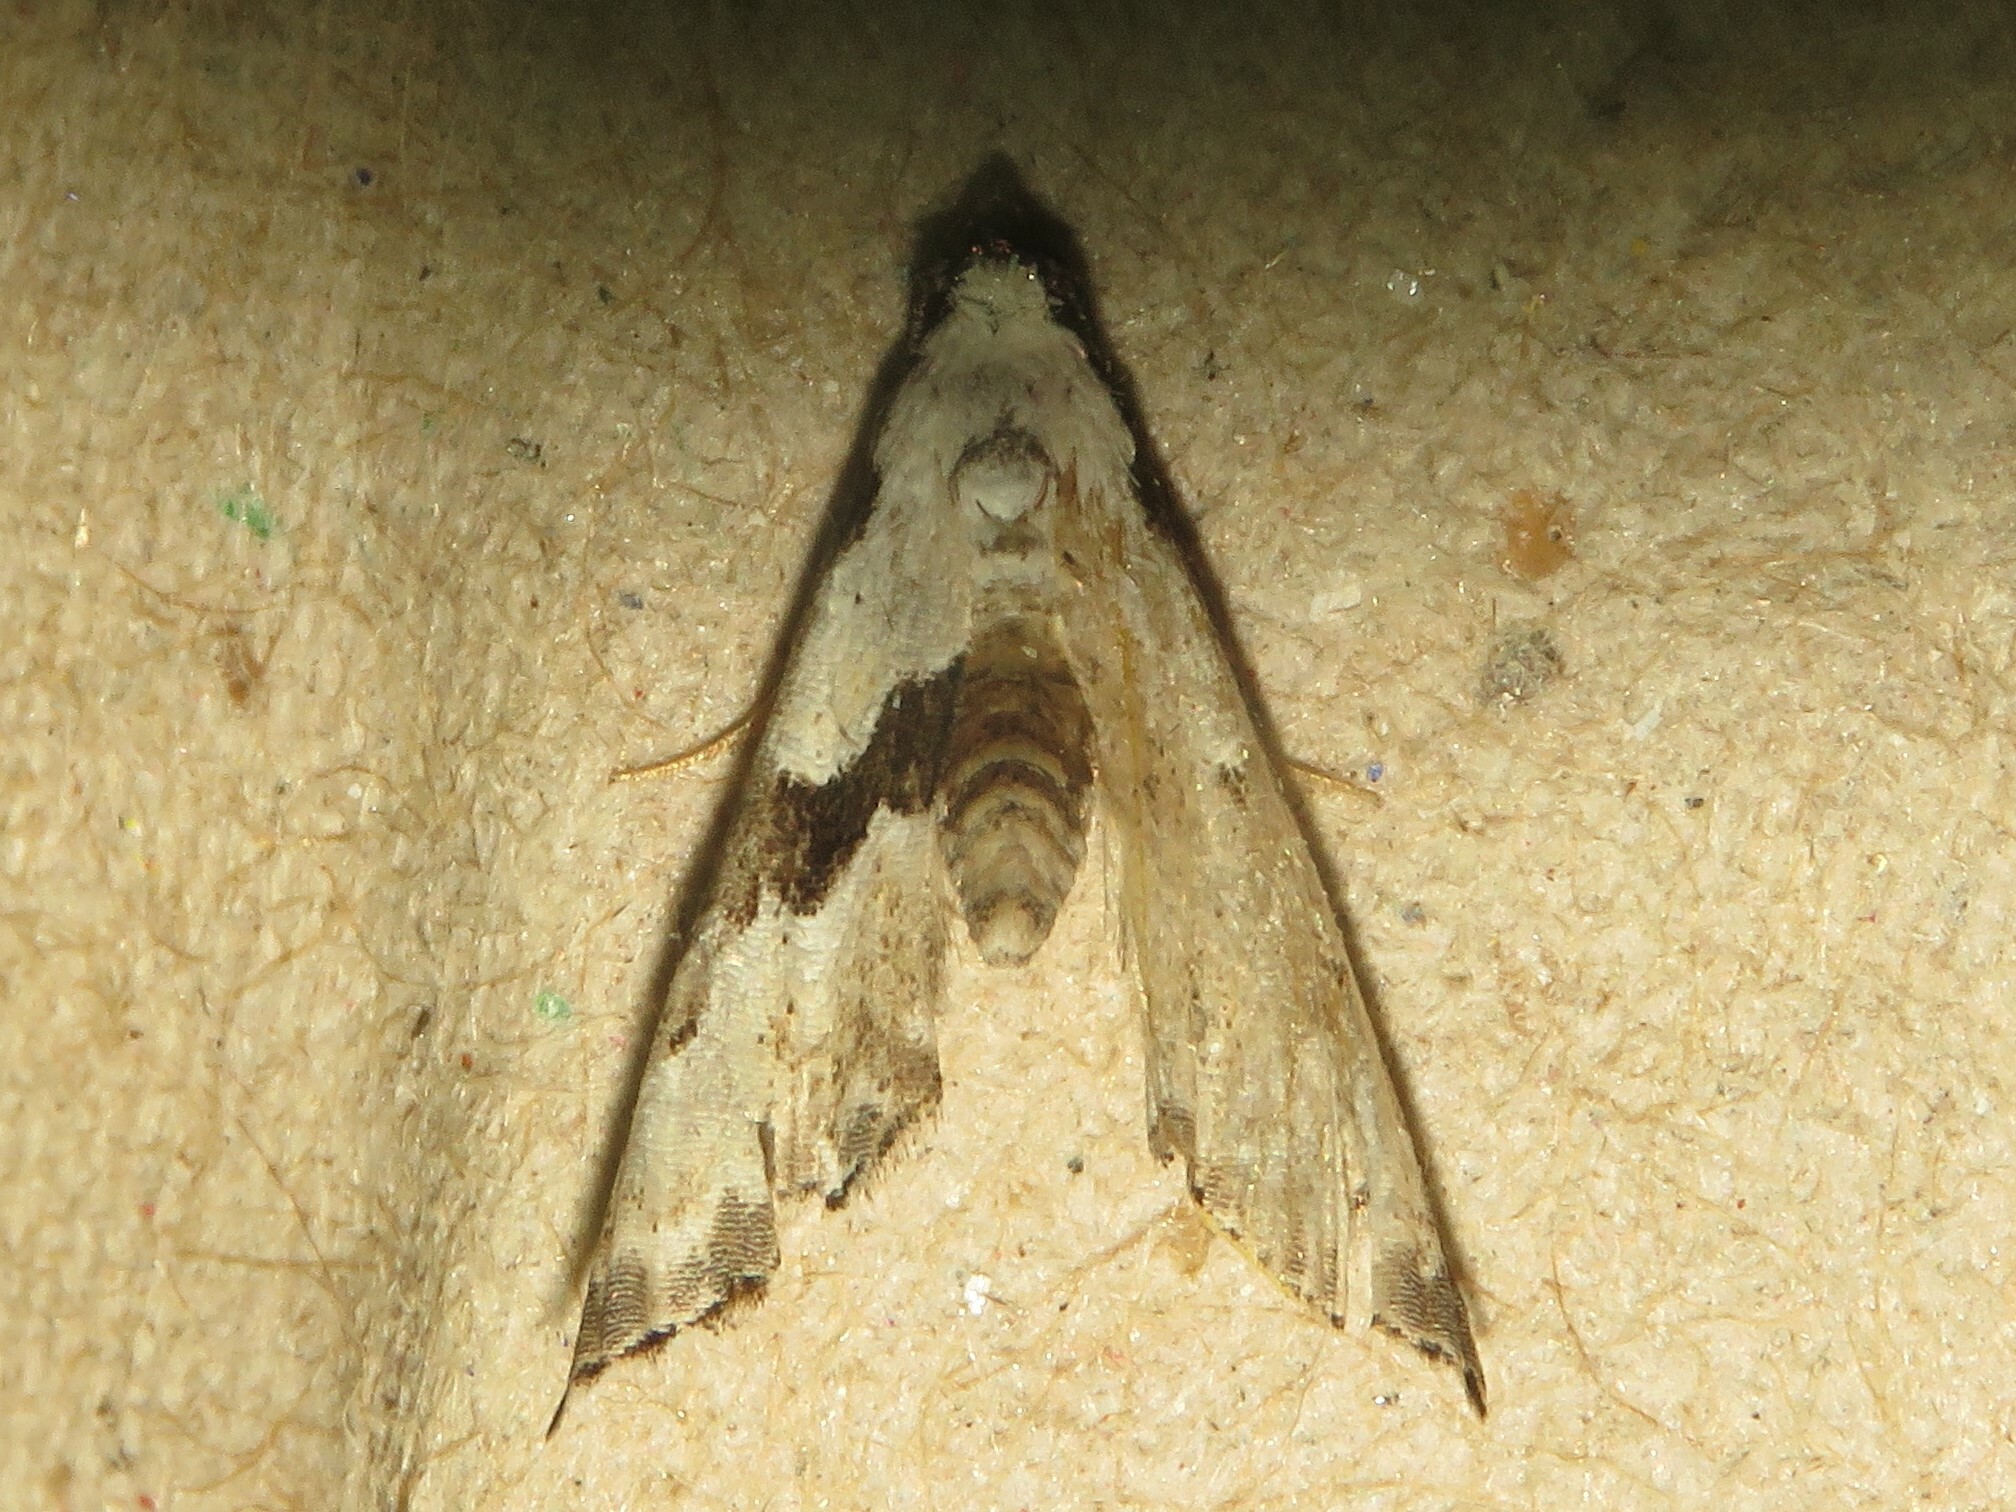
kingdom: Animalia
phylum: Arthropoda
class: Insecta
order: Lepidoptera
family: Noctuidae
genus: Nigetia
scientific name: Nigetia formosalis
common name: Thin-winged owlet
